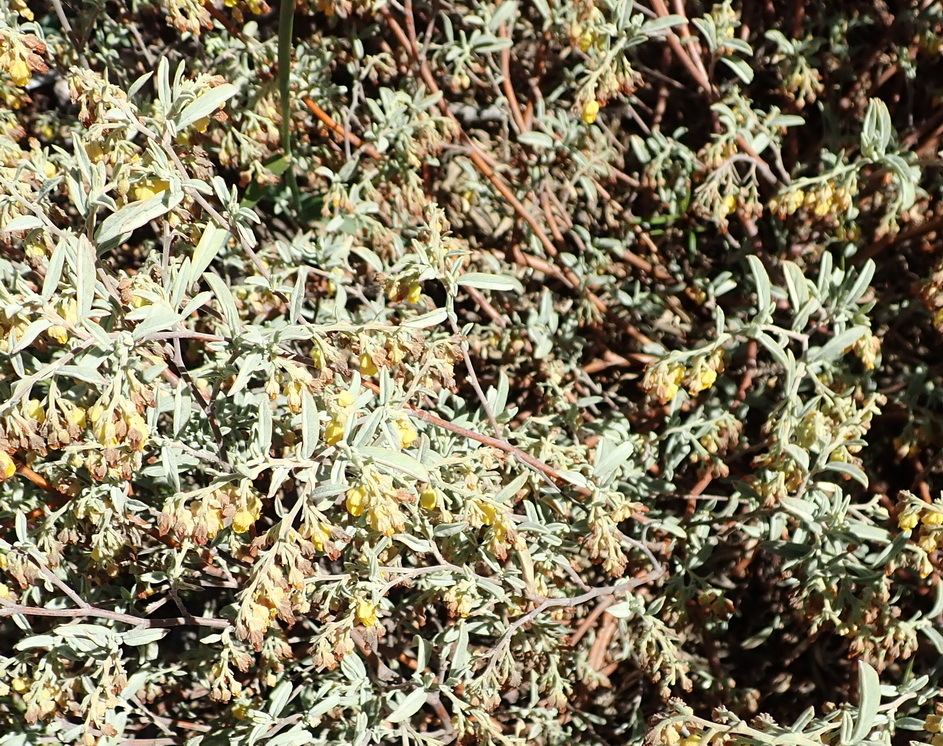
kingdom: Plantae
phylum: Tracheophyta
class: Magnoliopsida
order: Malvales
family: Malvaceae
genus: Hermannia
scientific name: Hermannia holosericea
